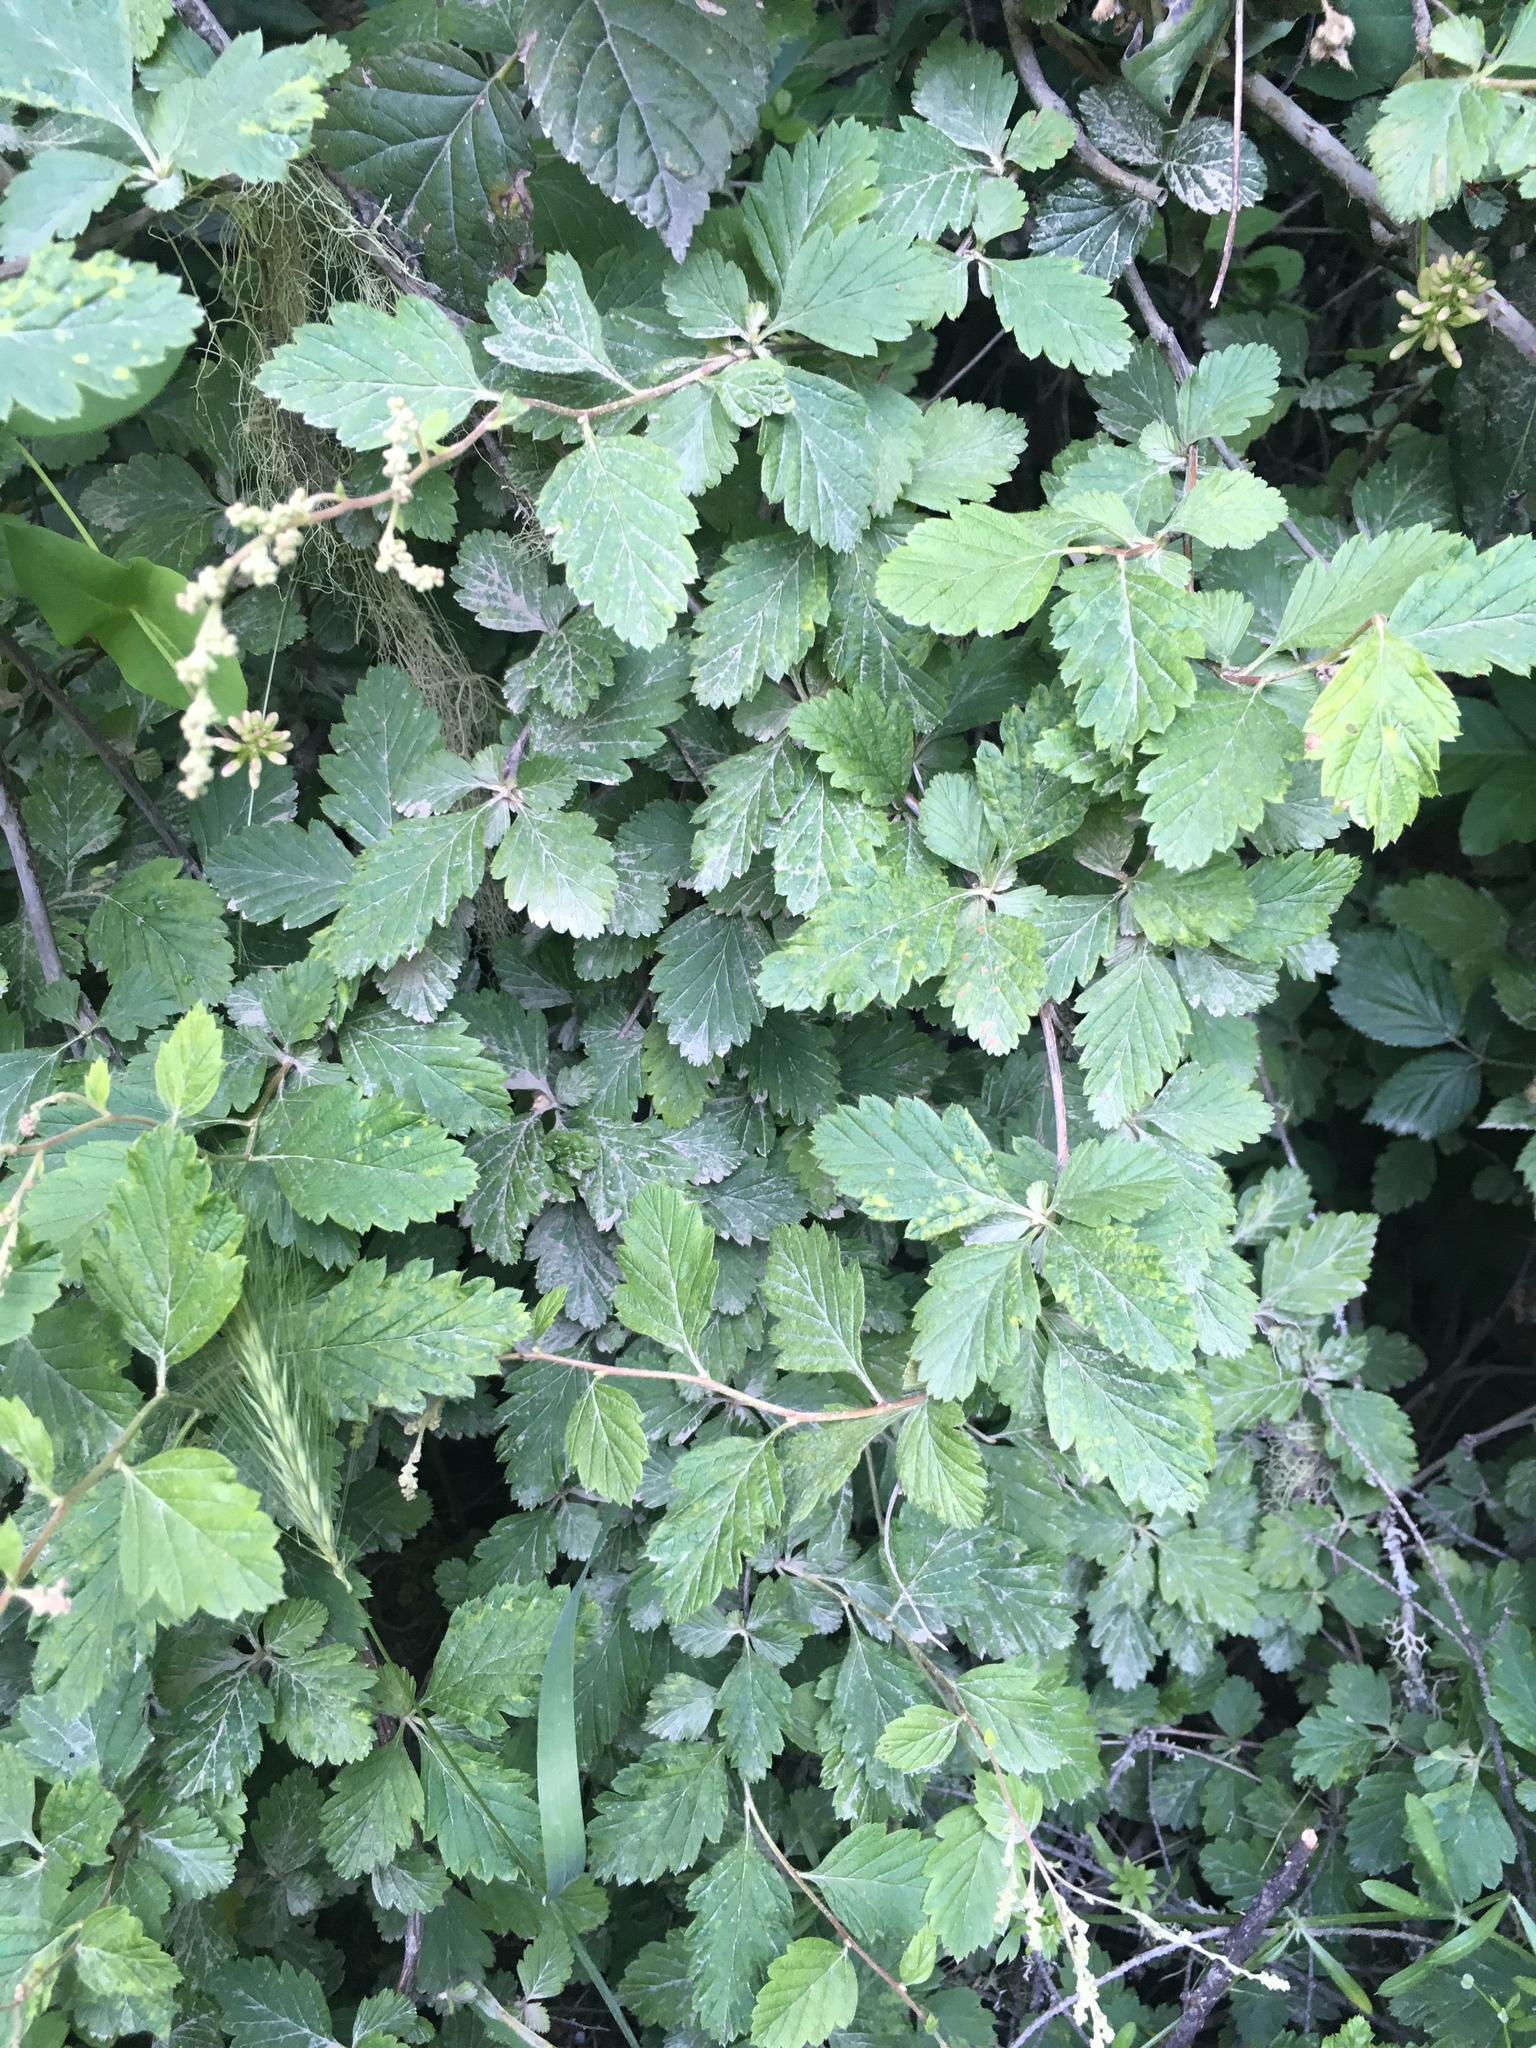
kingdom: Plantae
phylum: Tracheophyta
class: Magnoliopsida
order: Rosales
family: Rosaceae
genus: Holodiscus
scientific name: Holodiscus discolor
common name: Oceanspray
